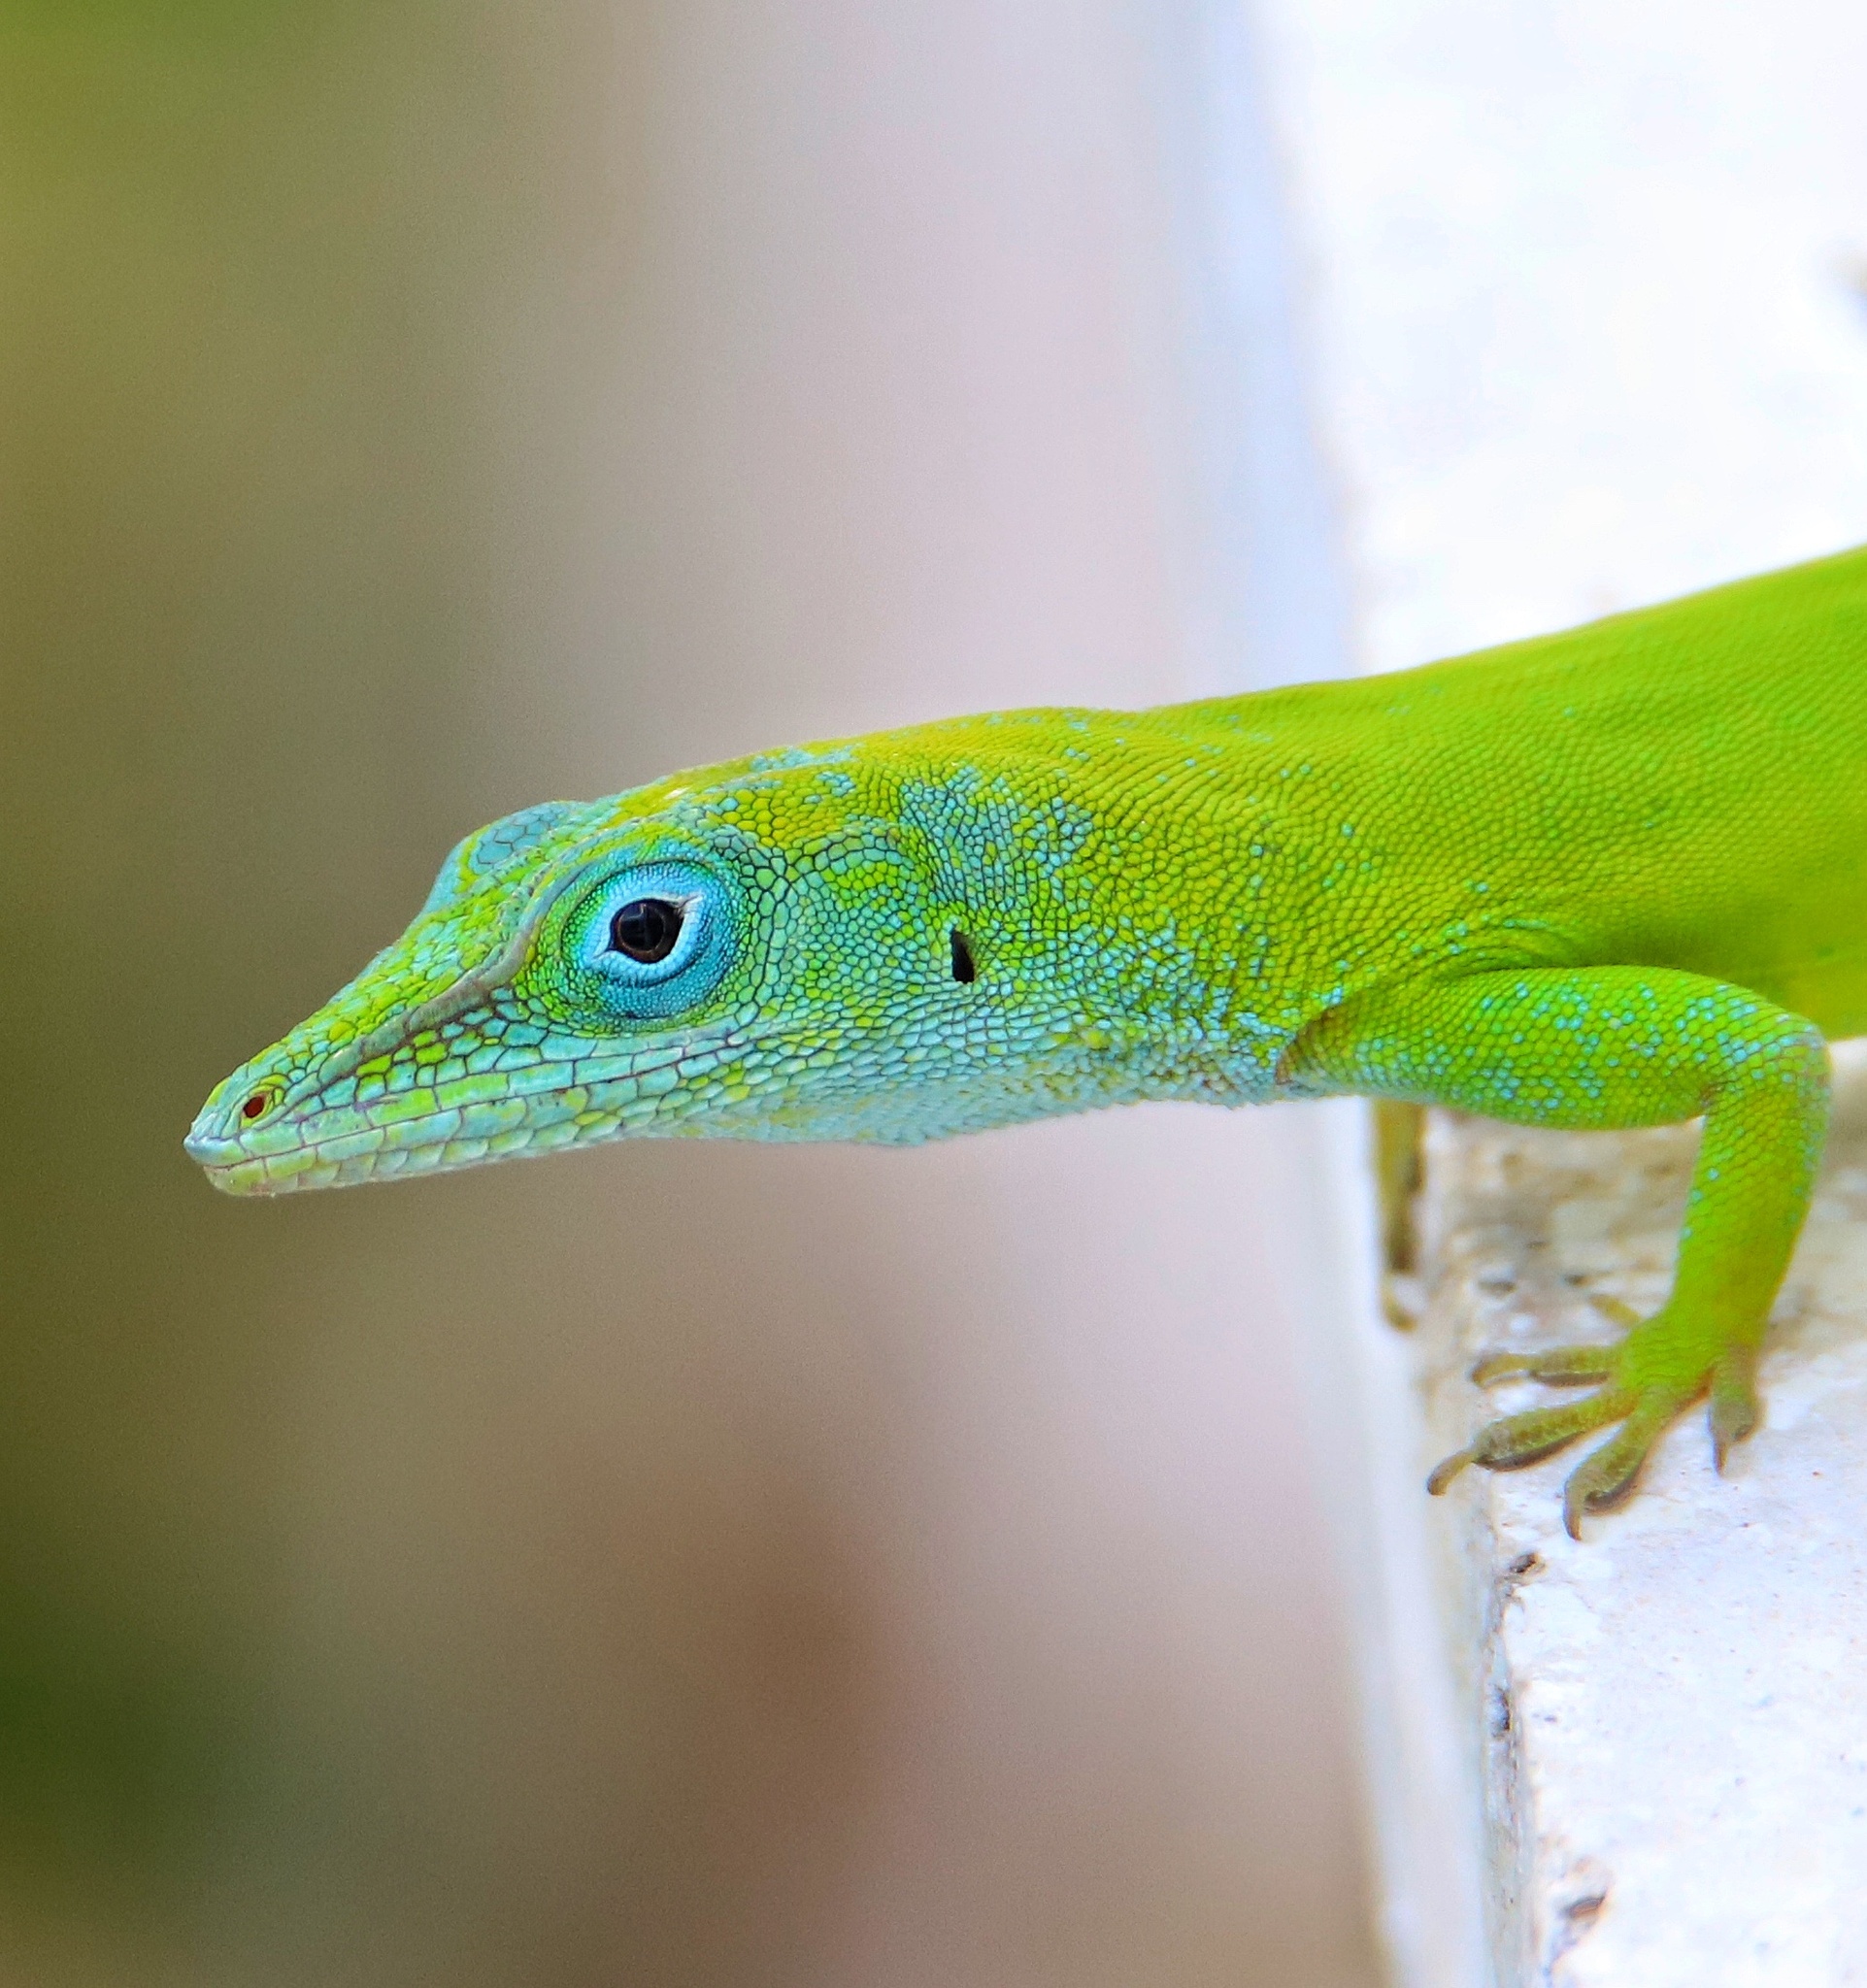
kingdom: Animalia
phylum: Chordata
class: Squamata
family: Dactyloidae
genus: Anolis
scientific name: Anolis callainus
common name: Dominican green anole
